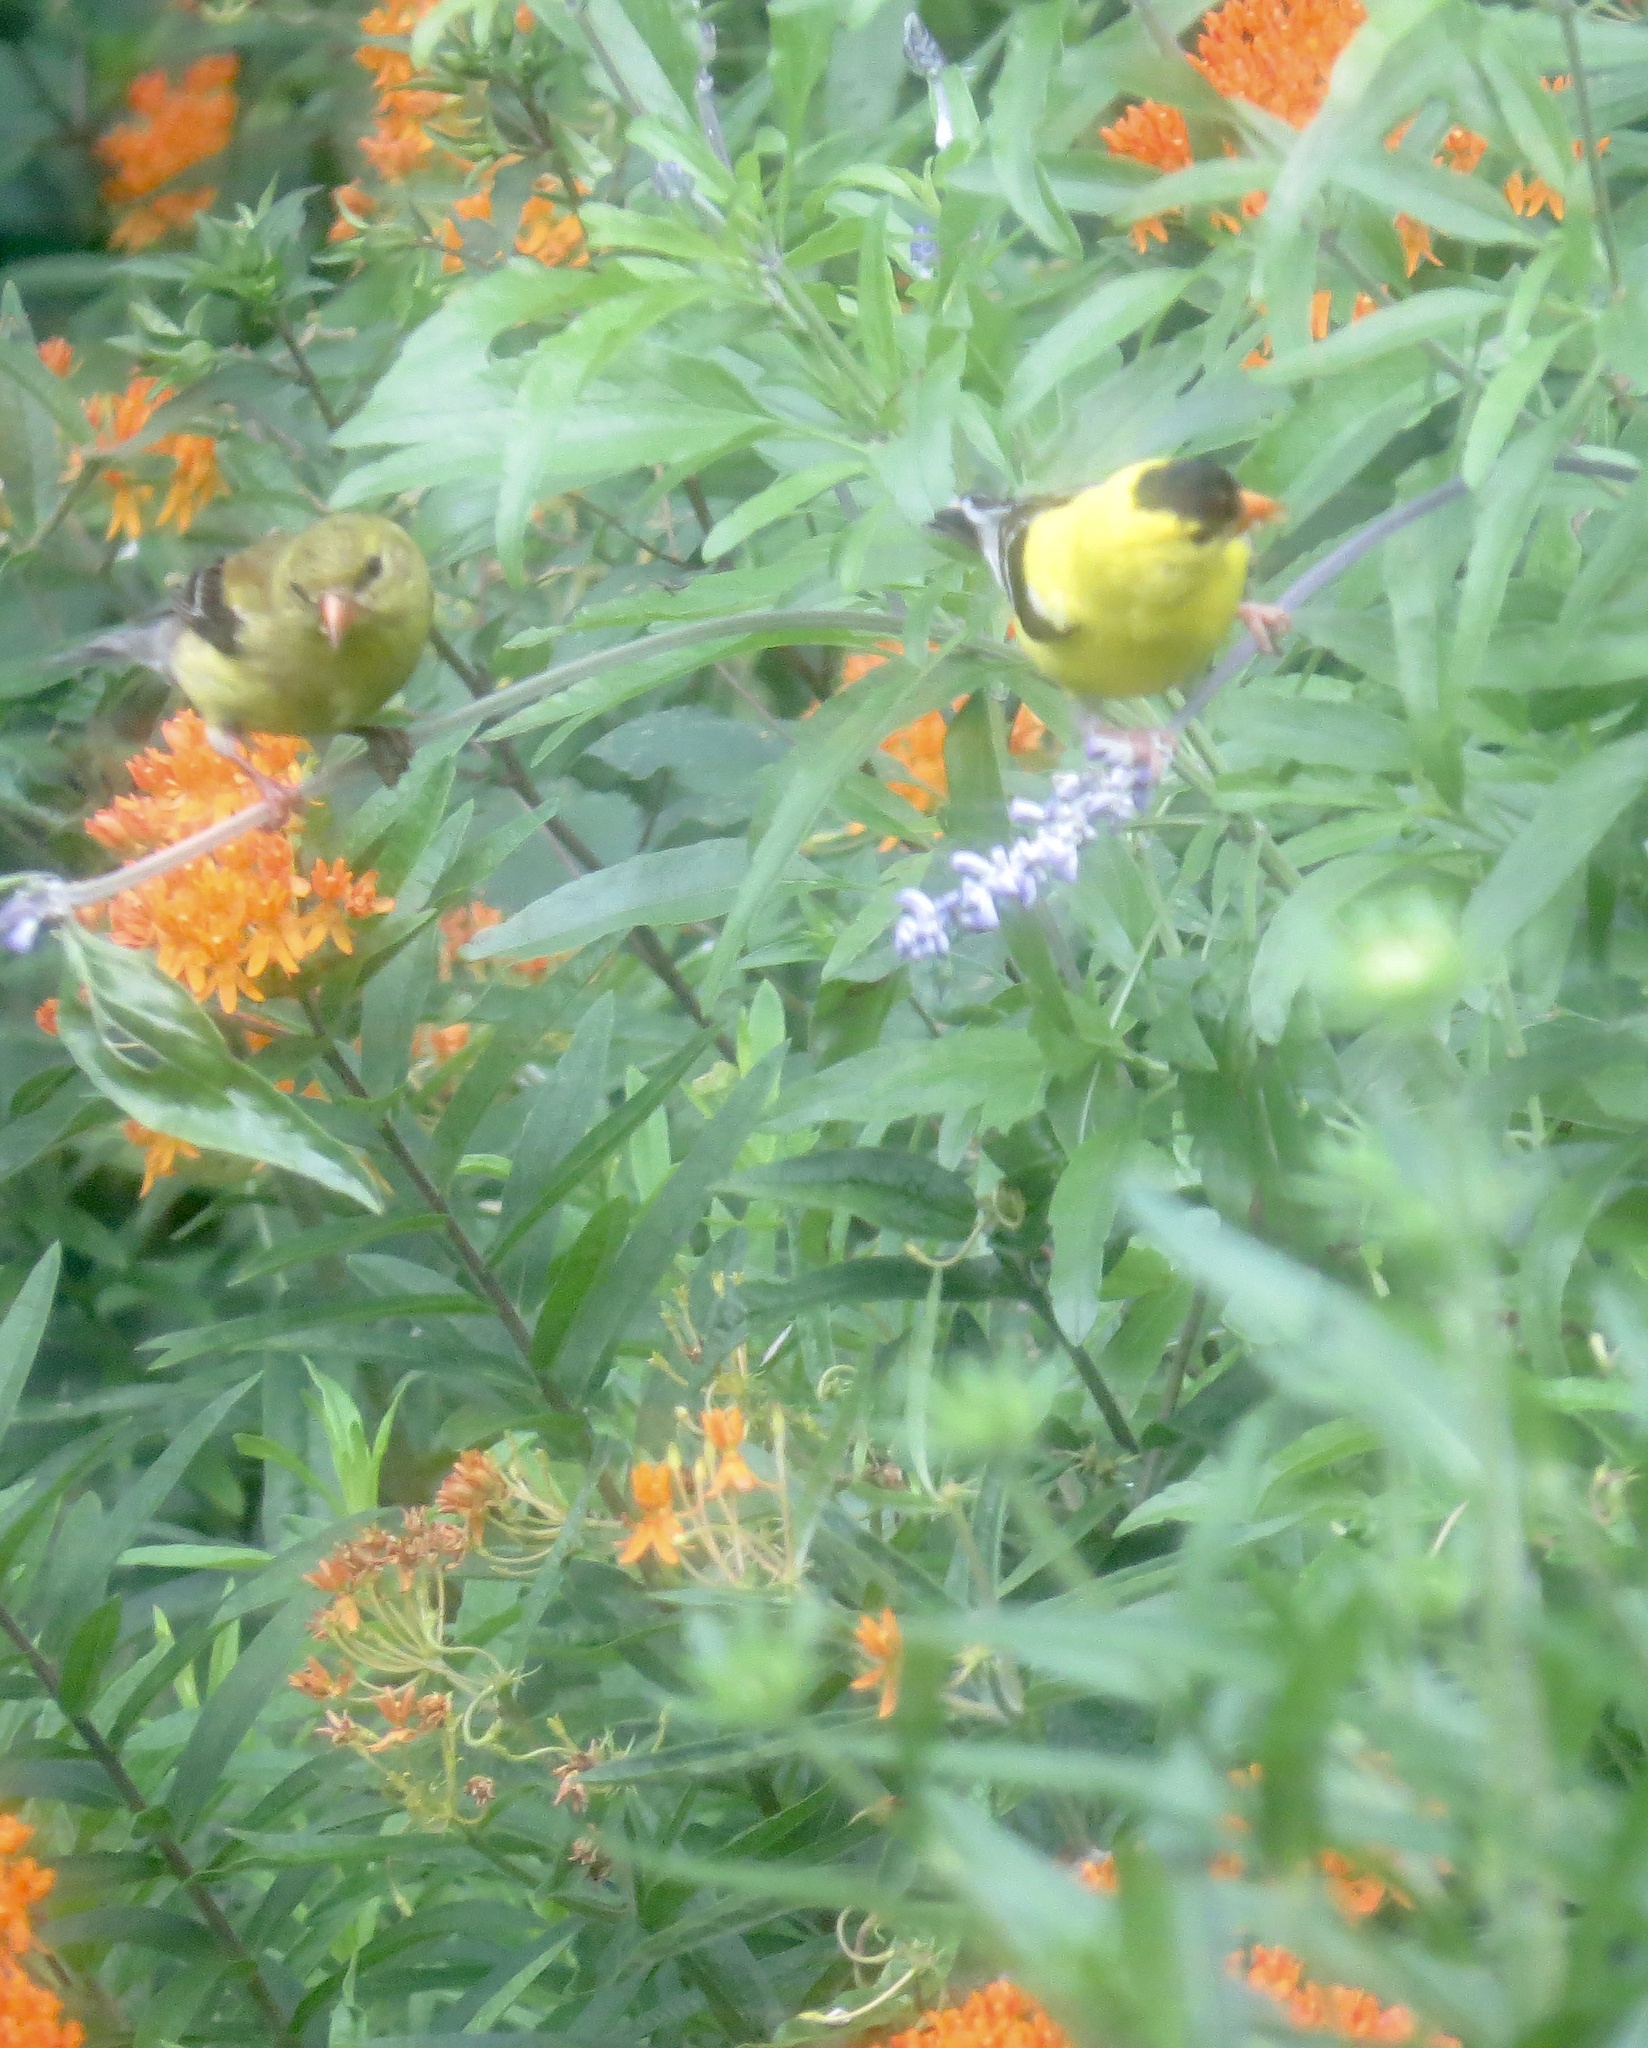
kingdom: Animalia
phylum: Chordata
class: Aves
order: Passeriformes
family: Fringillidae
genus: Spinus
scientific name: Spinus tristis
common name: American goldfinch
